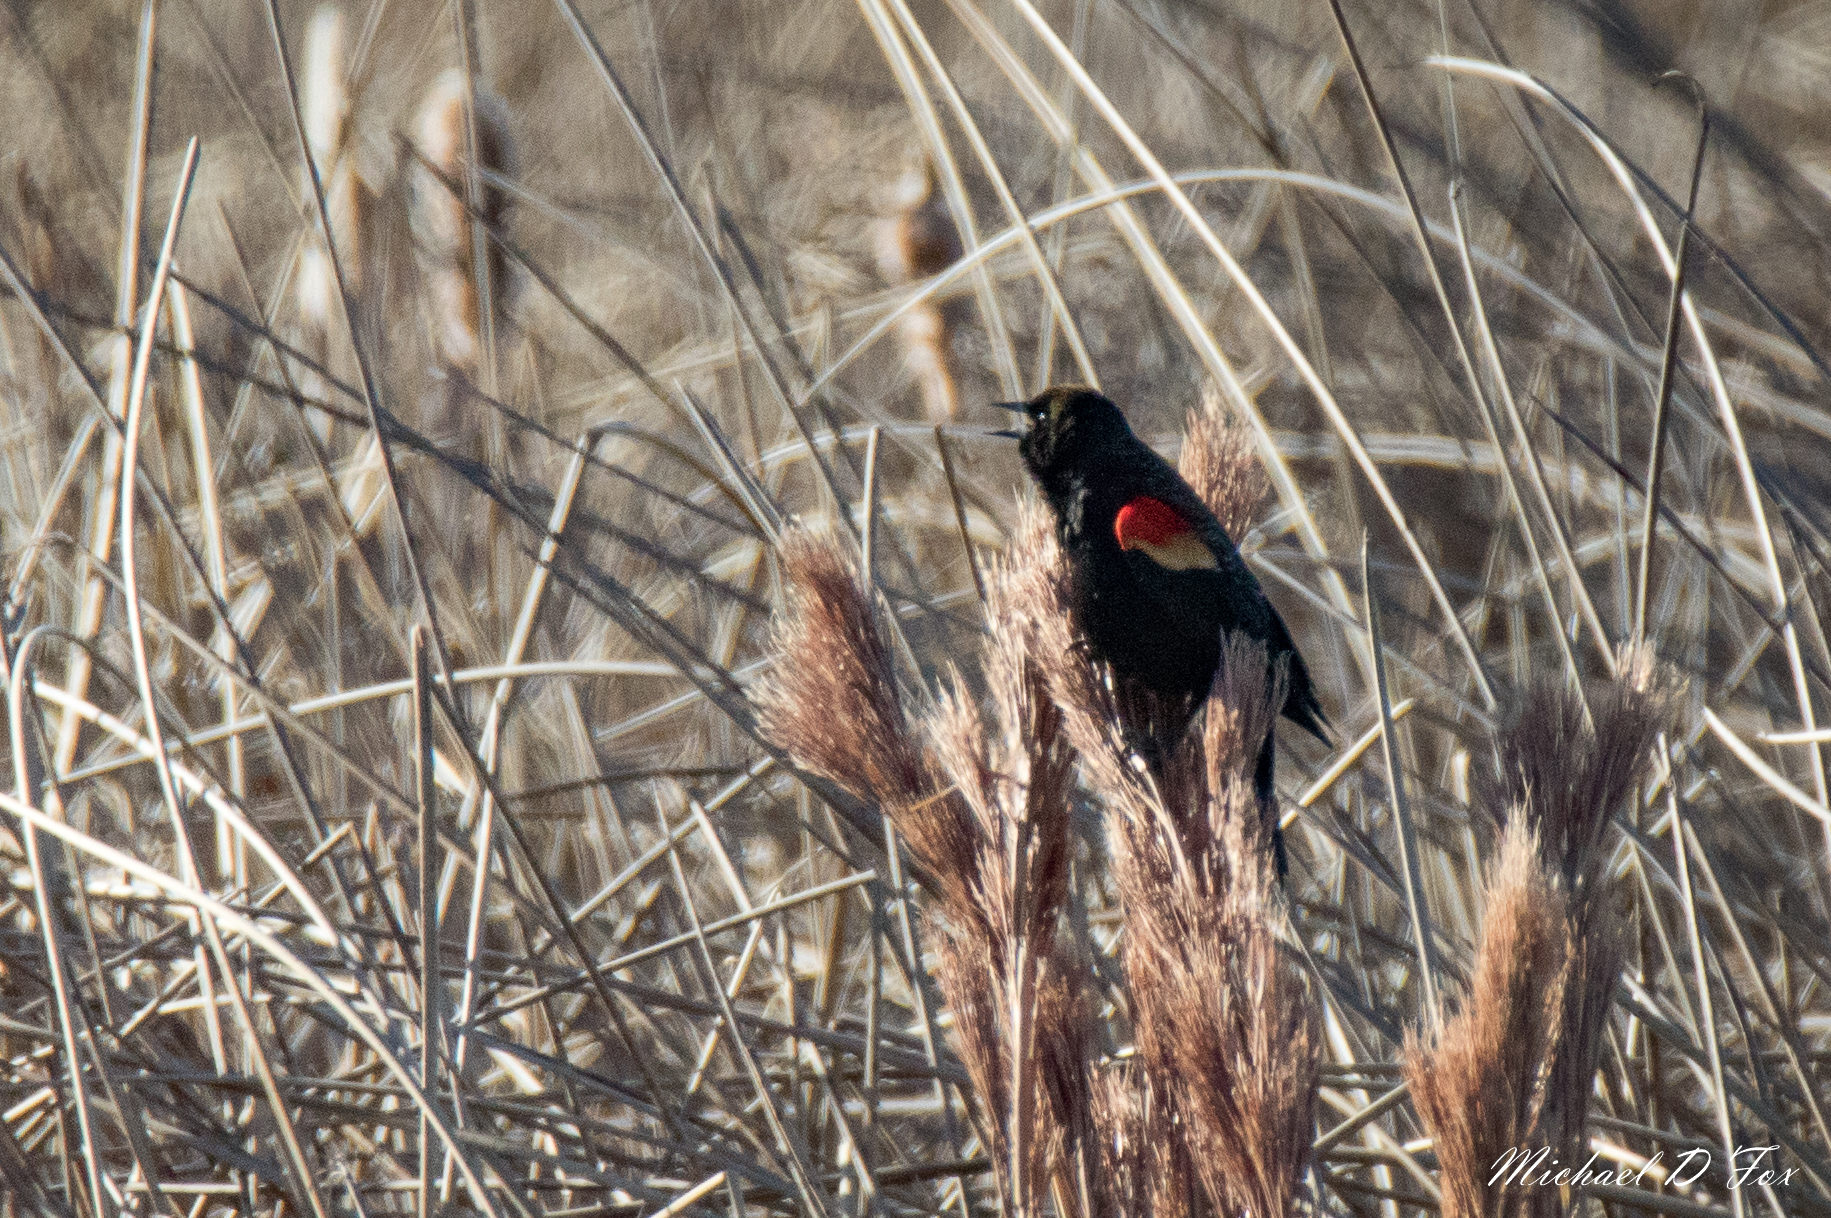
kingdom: Animalia
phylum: Chordata
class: Aves
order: Passeriformes
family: Icteridae
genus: Agelaius
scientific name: Agelaius phoeniceus
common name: Red-winged blackbird
